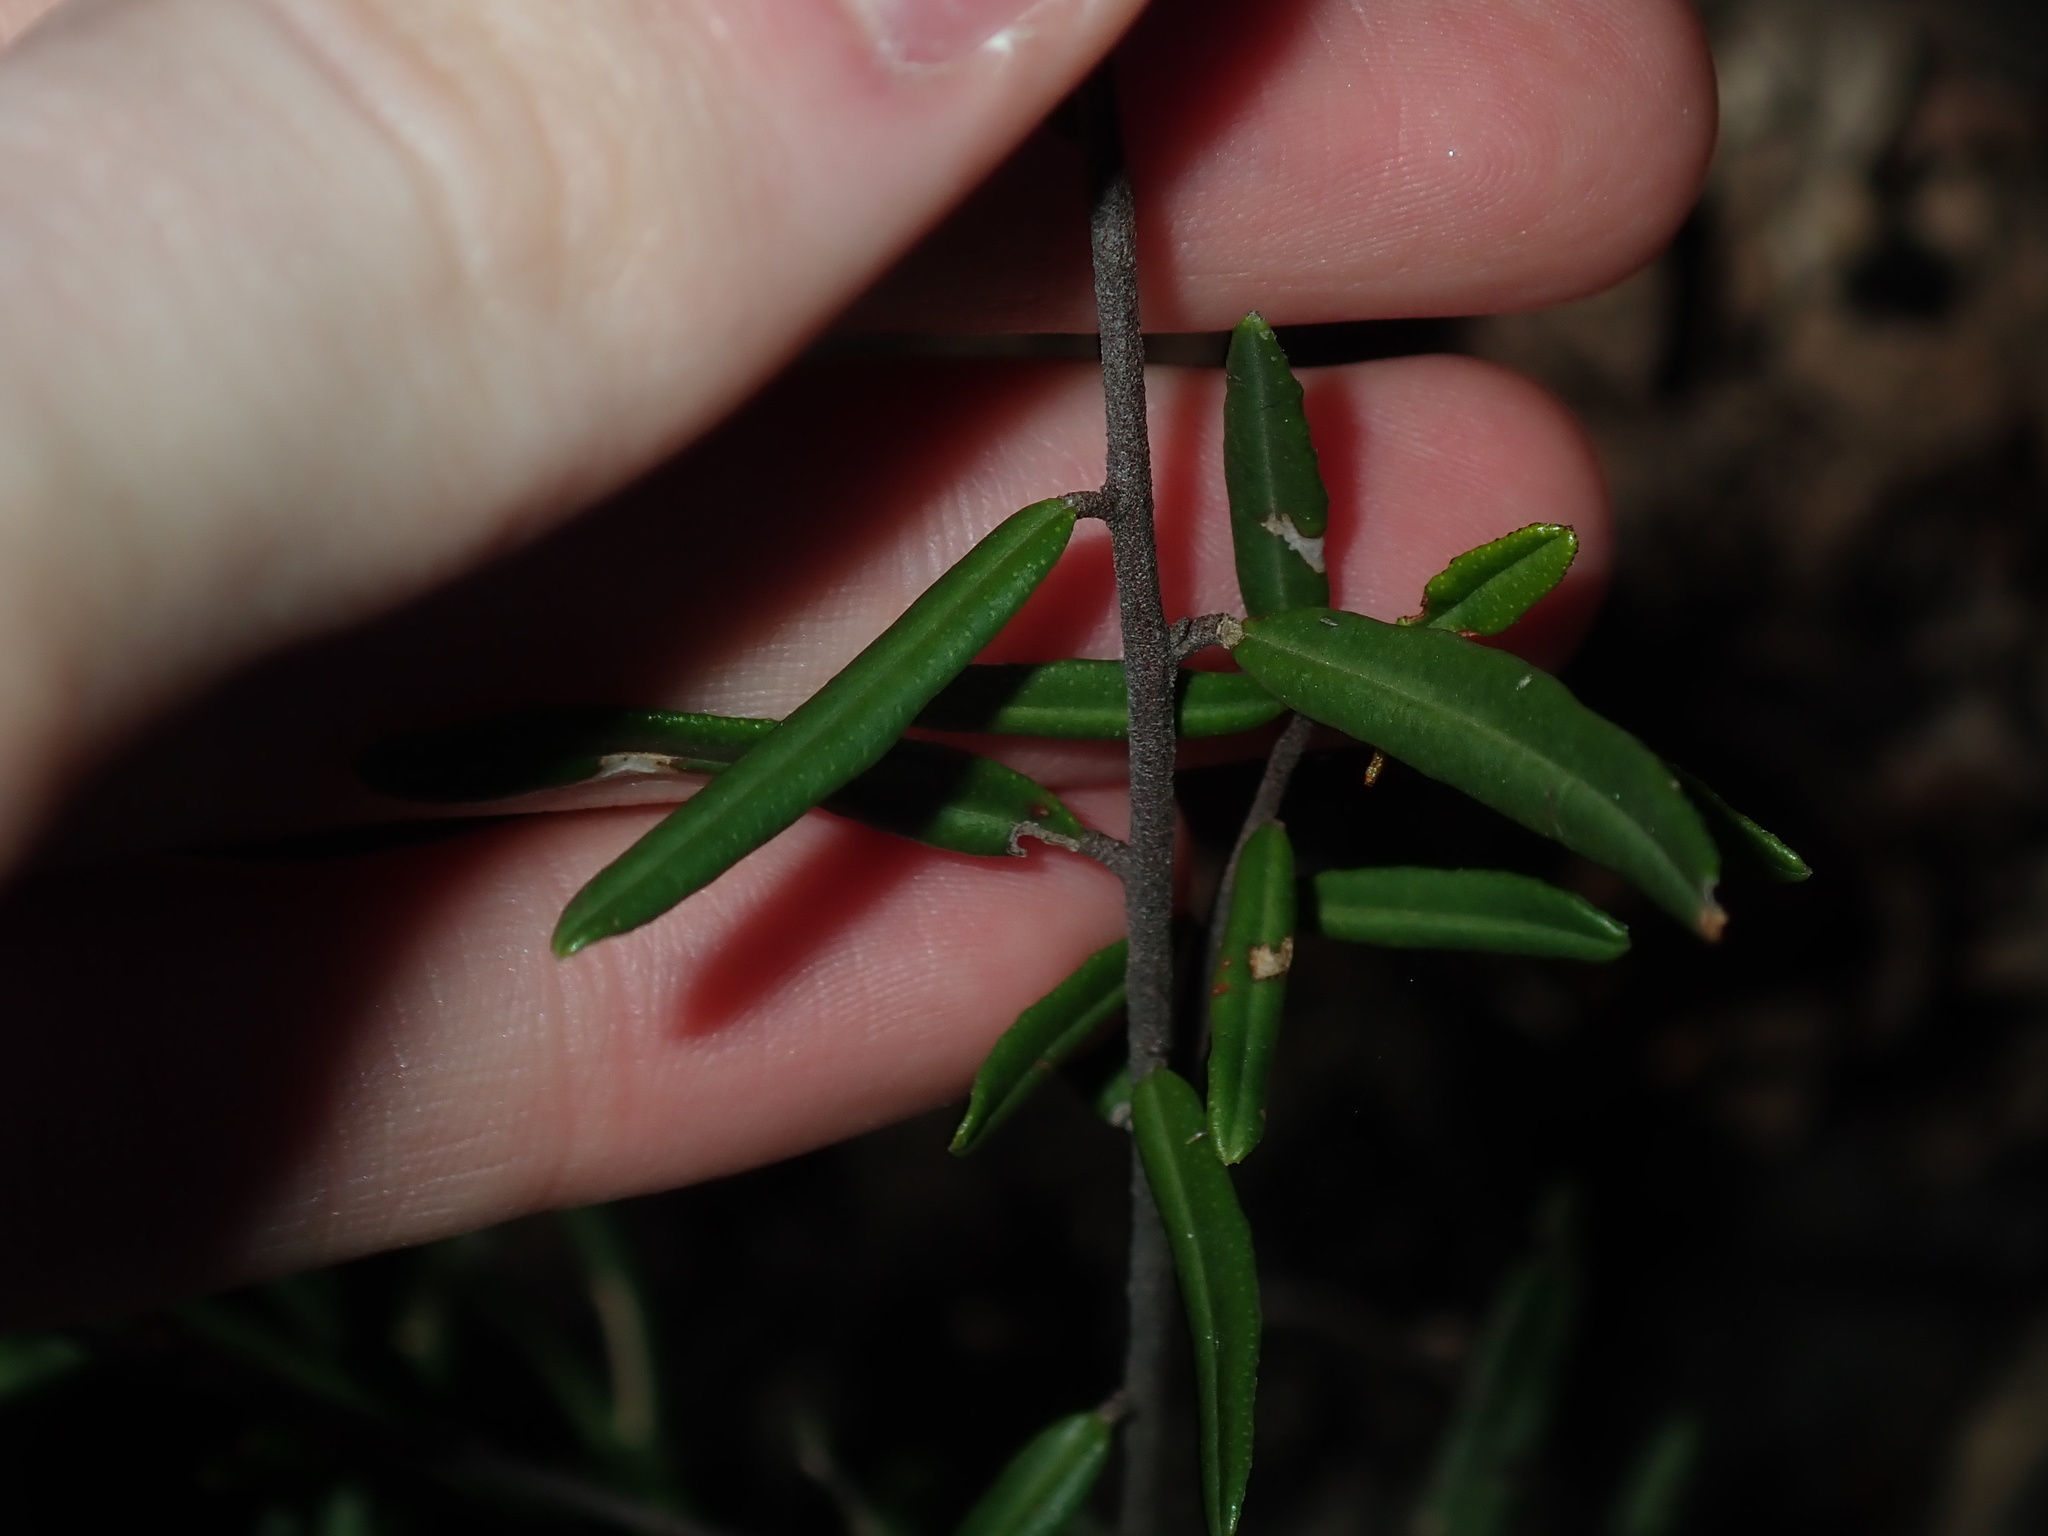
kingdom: Plantae
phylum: Tracheophyta
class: Magnoliopsida
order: Sapindales
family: Rutaceae
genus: Phebalium
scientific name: Phebalium squamulosum
